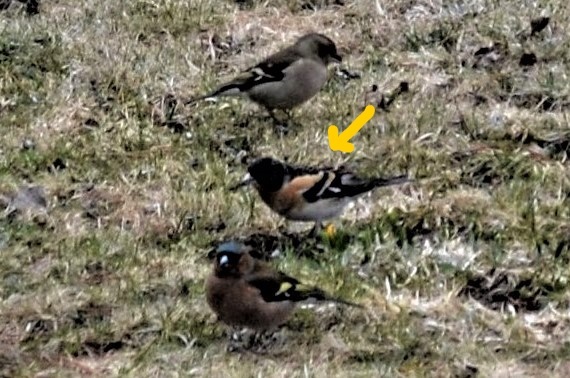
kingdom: Animalia
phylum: Chordata
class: Aves
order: Passeriformes
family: Fringillidae
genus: Fringilla
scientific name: Fringilla montifringilla
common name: Brambling
